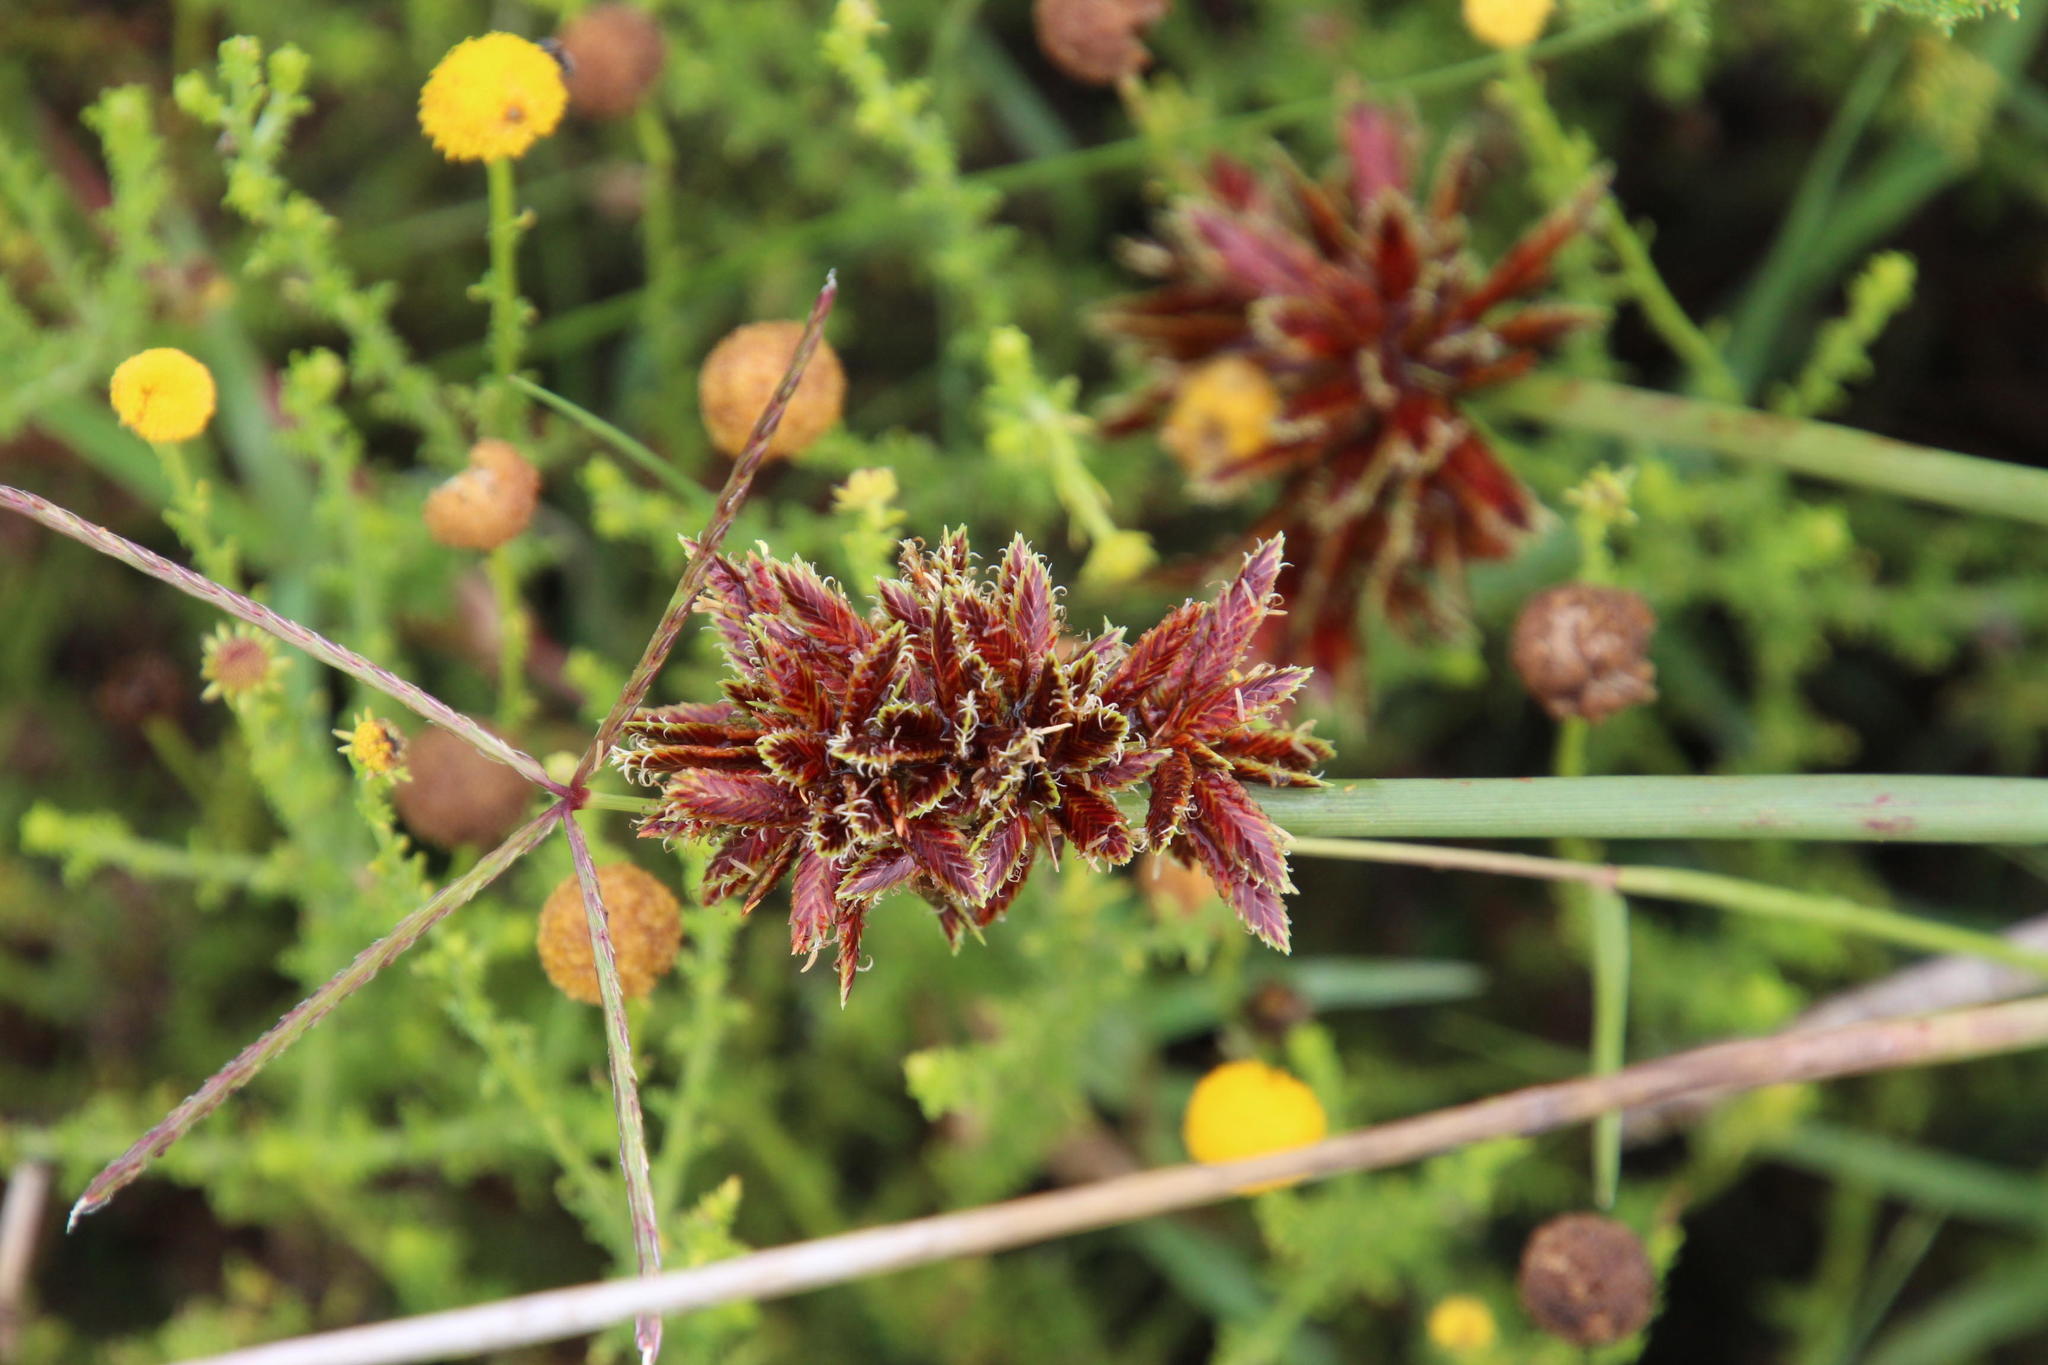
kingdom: Plantae
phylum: Tracheophyta
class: Liliopsida
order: Poales
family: Cyperaceae
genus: Cyperus
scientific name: Cyperus marginatus
